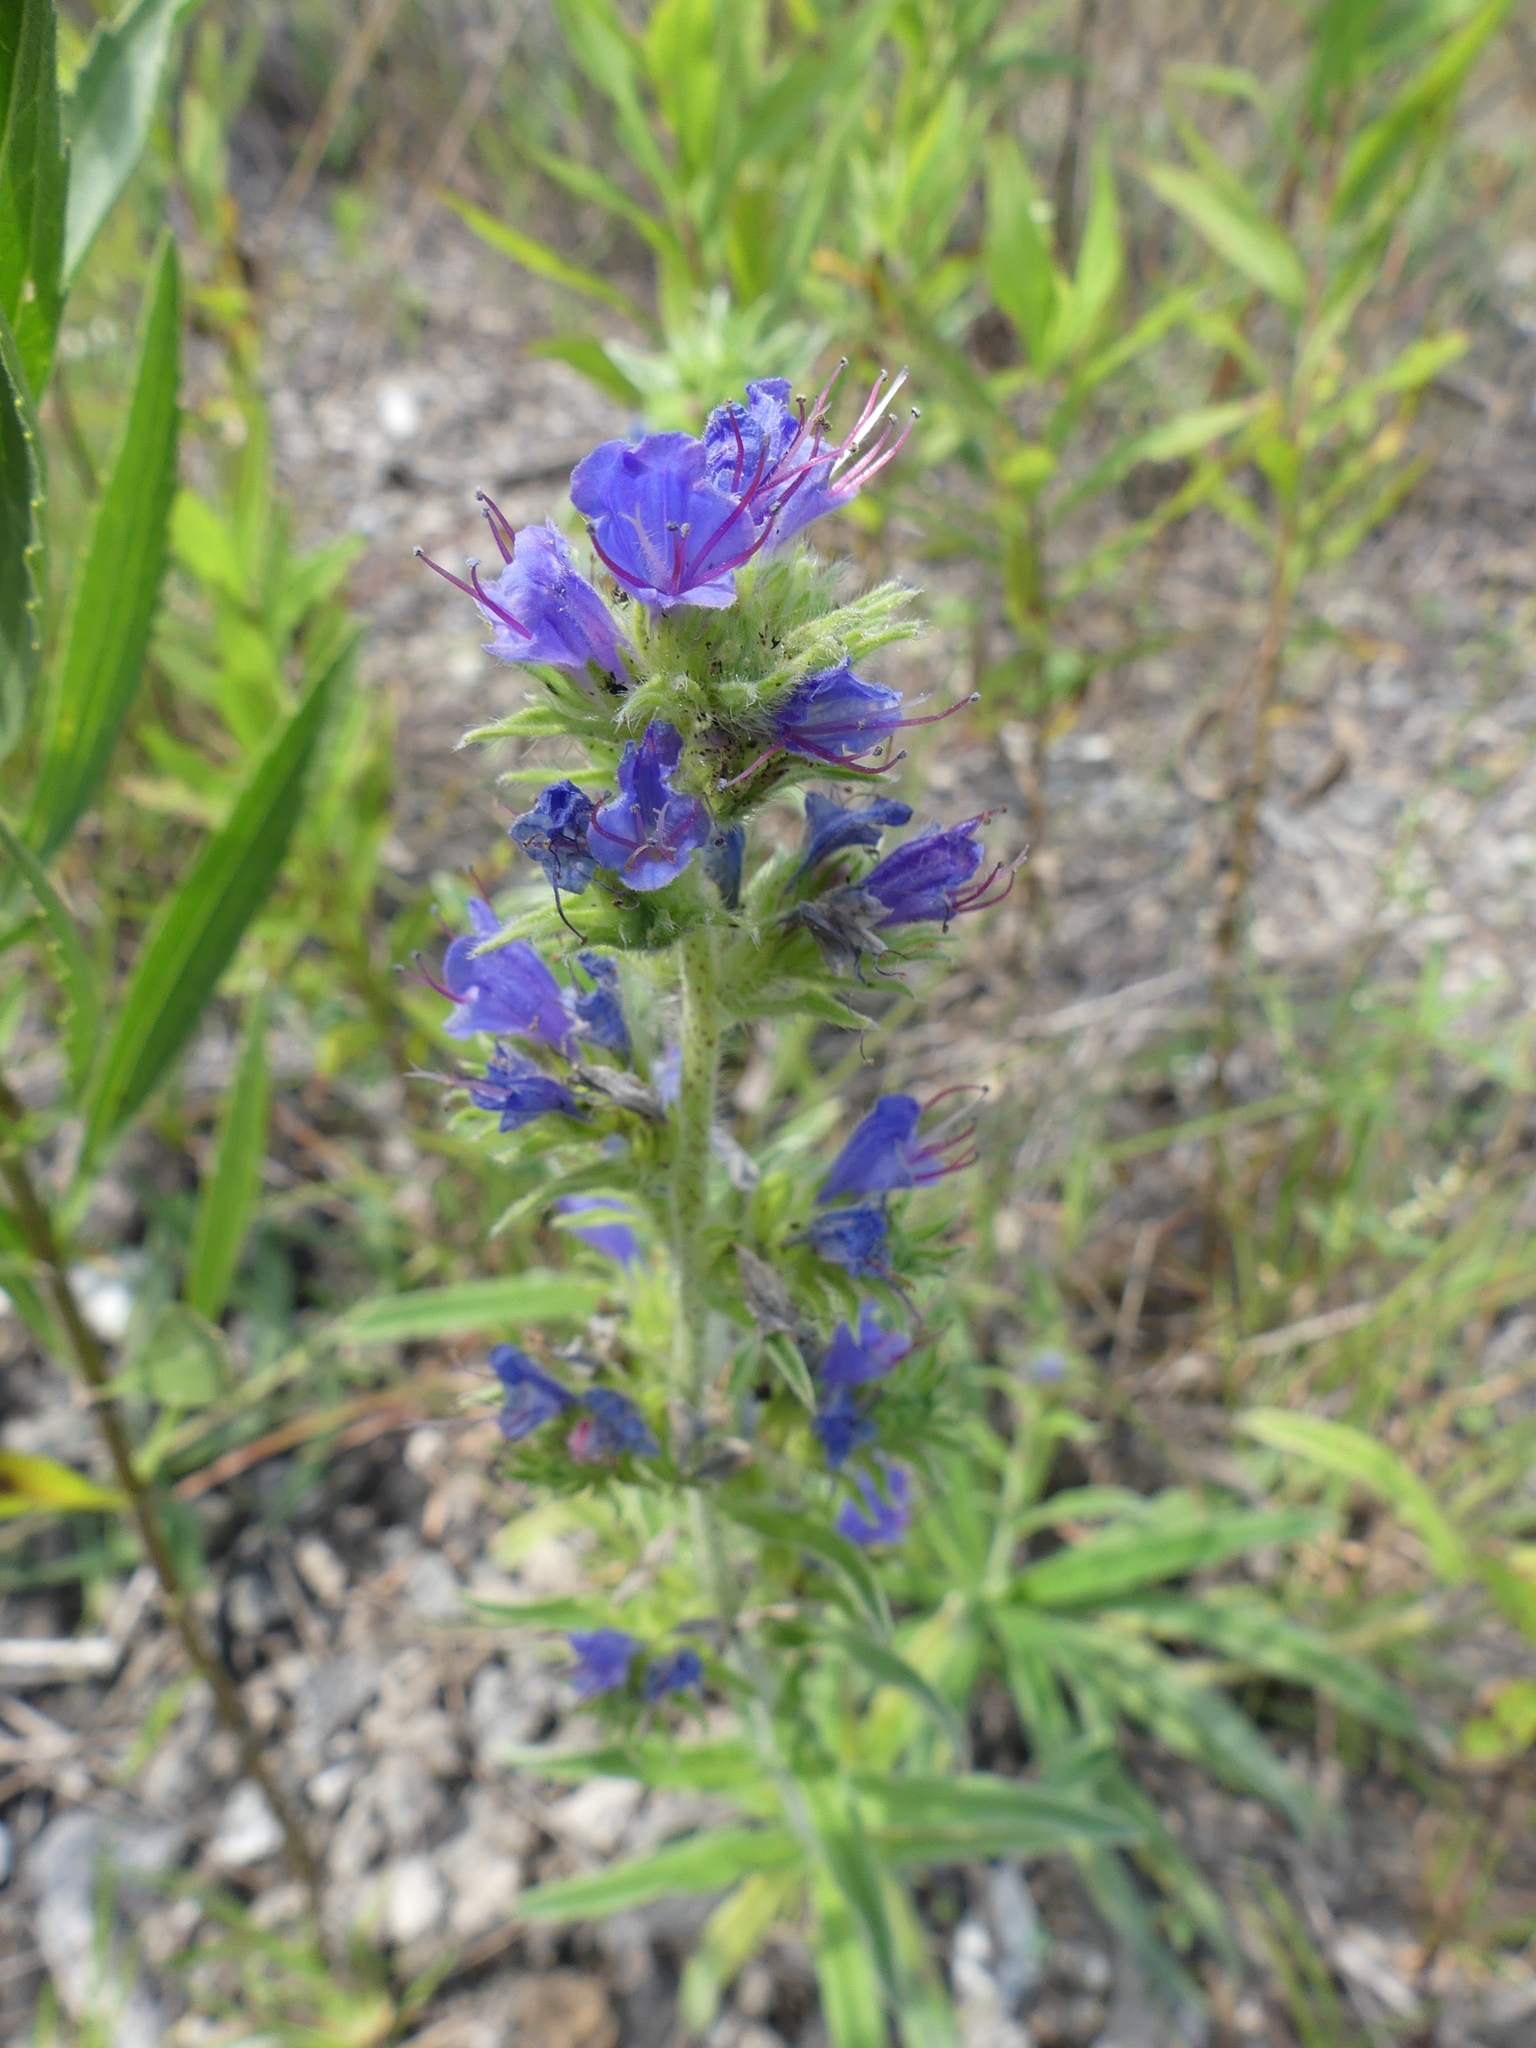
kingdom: Plantae
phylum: Tracheophyta
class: Magnoliopsida
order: Boraginales
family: Boraginaceae
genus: Echium
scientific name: Echium vulgare
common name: Common viper's bugloss
